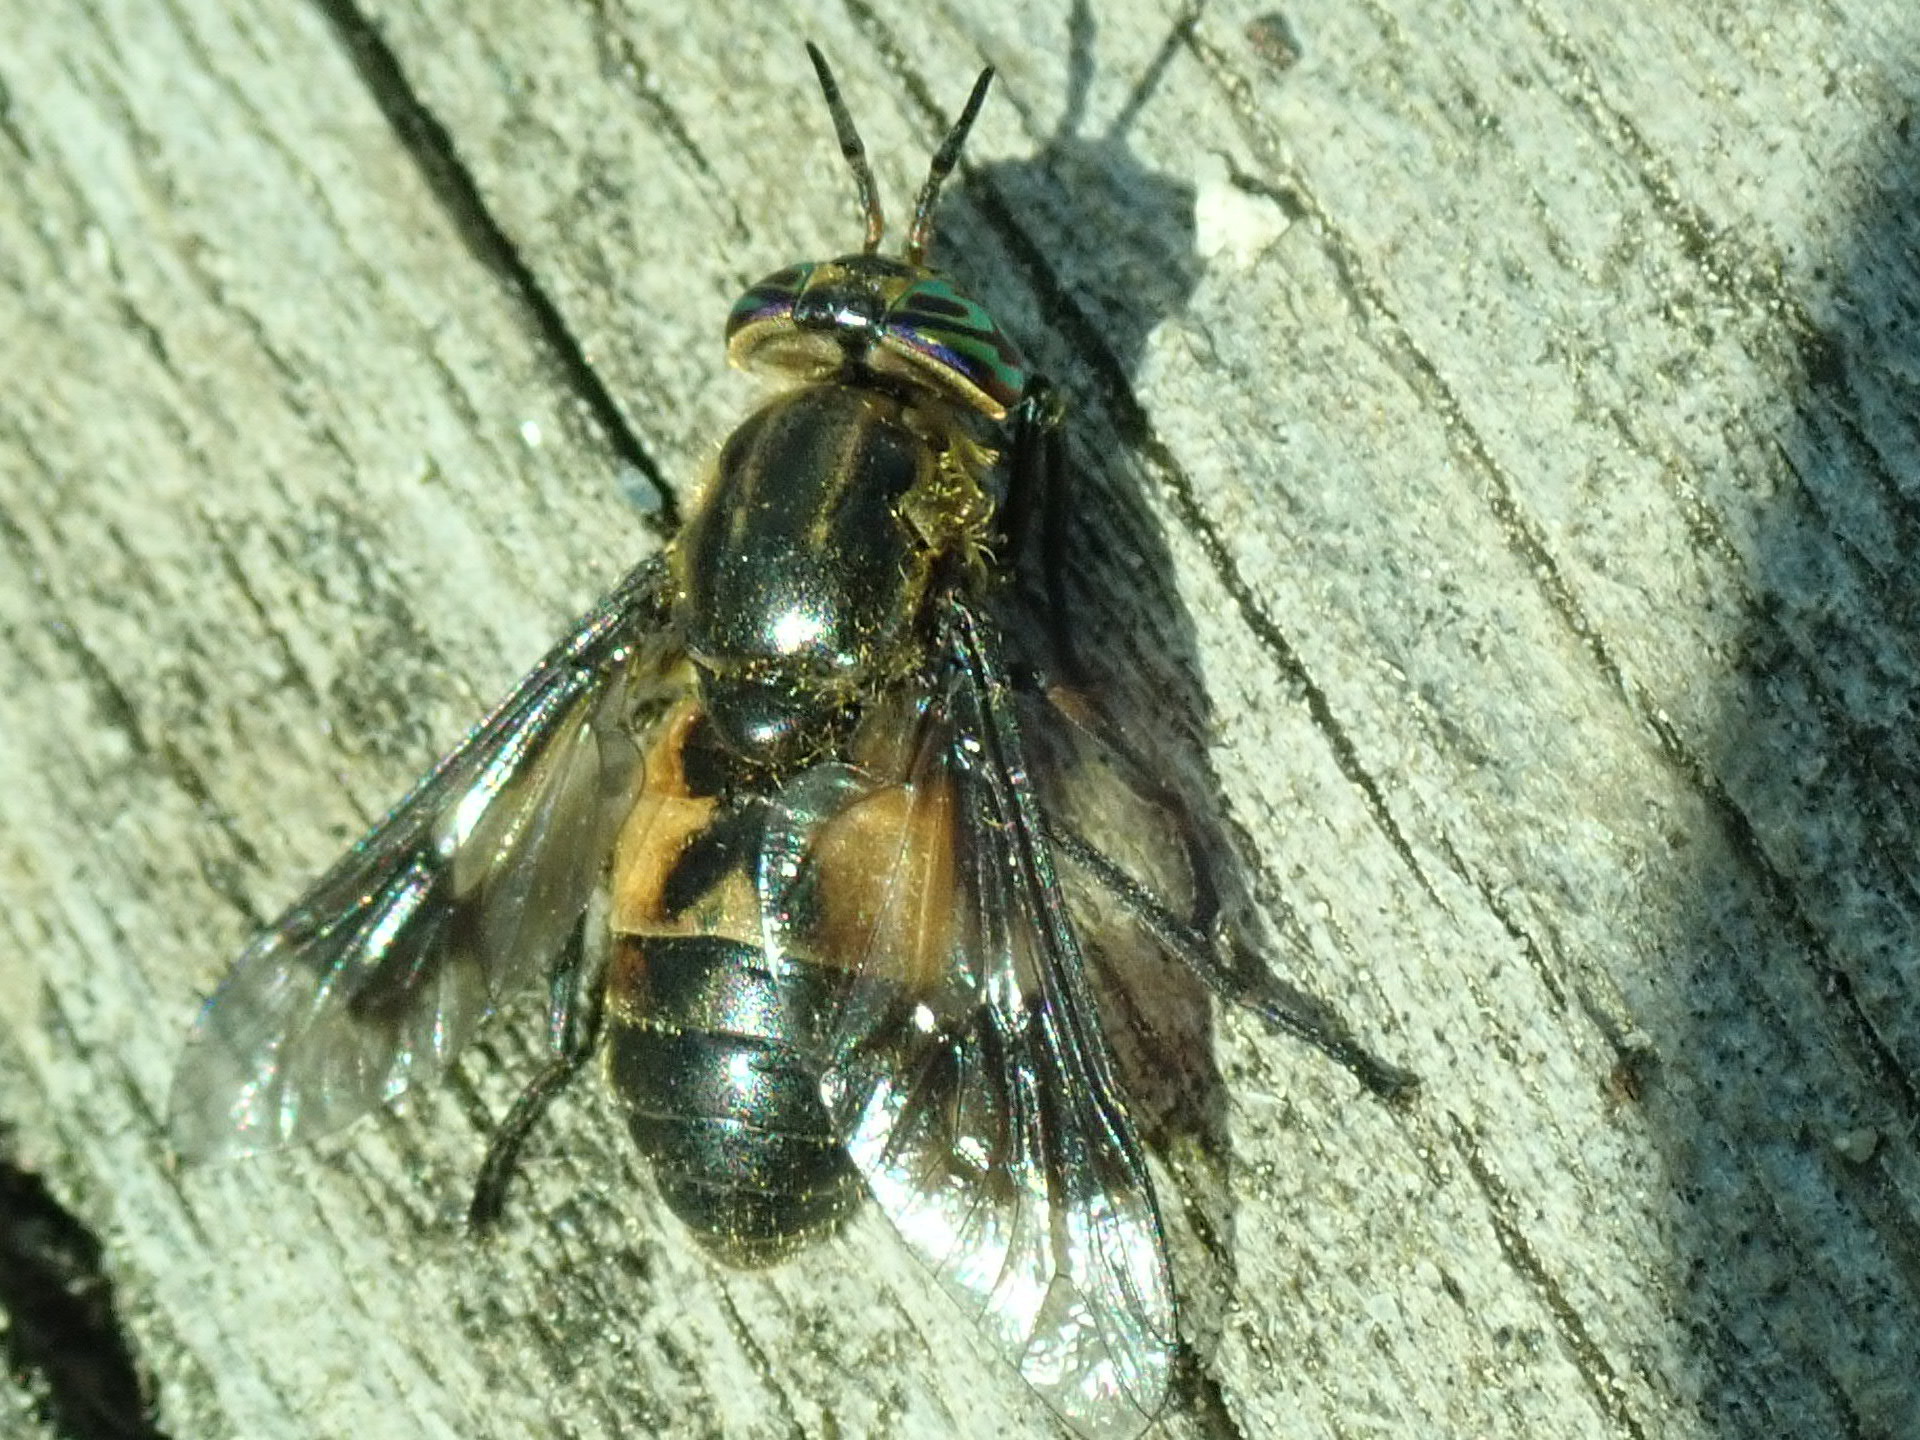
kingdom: Animalia
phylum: Arthropoda
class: Insecta
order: Diptera
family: Tabanidae
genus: Chrysops
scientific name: Chrysops excitans
